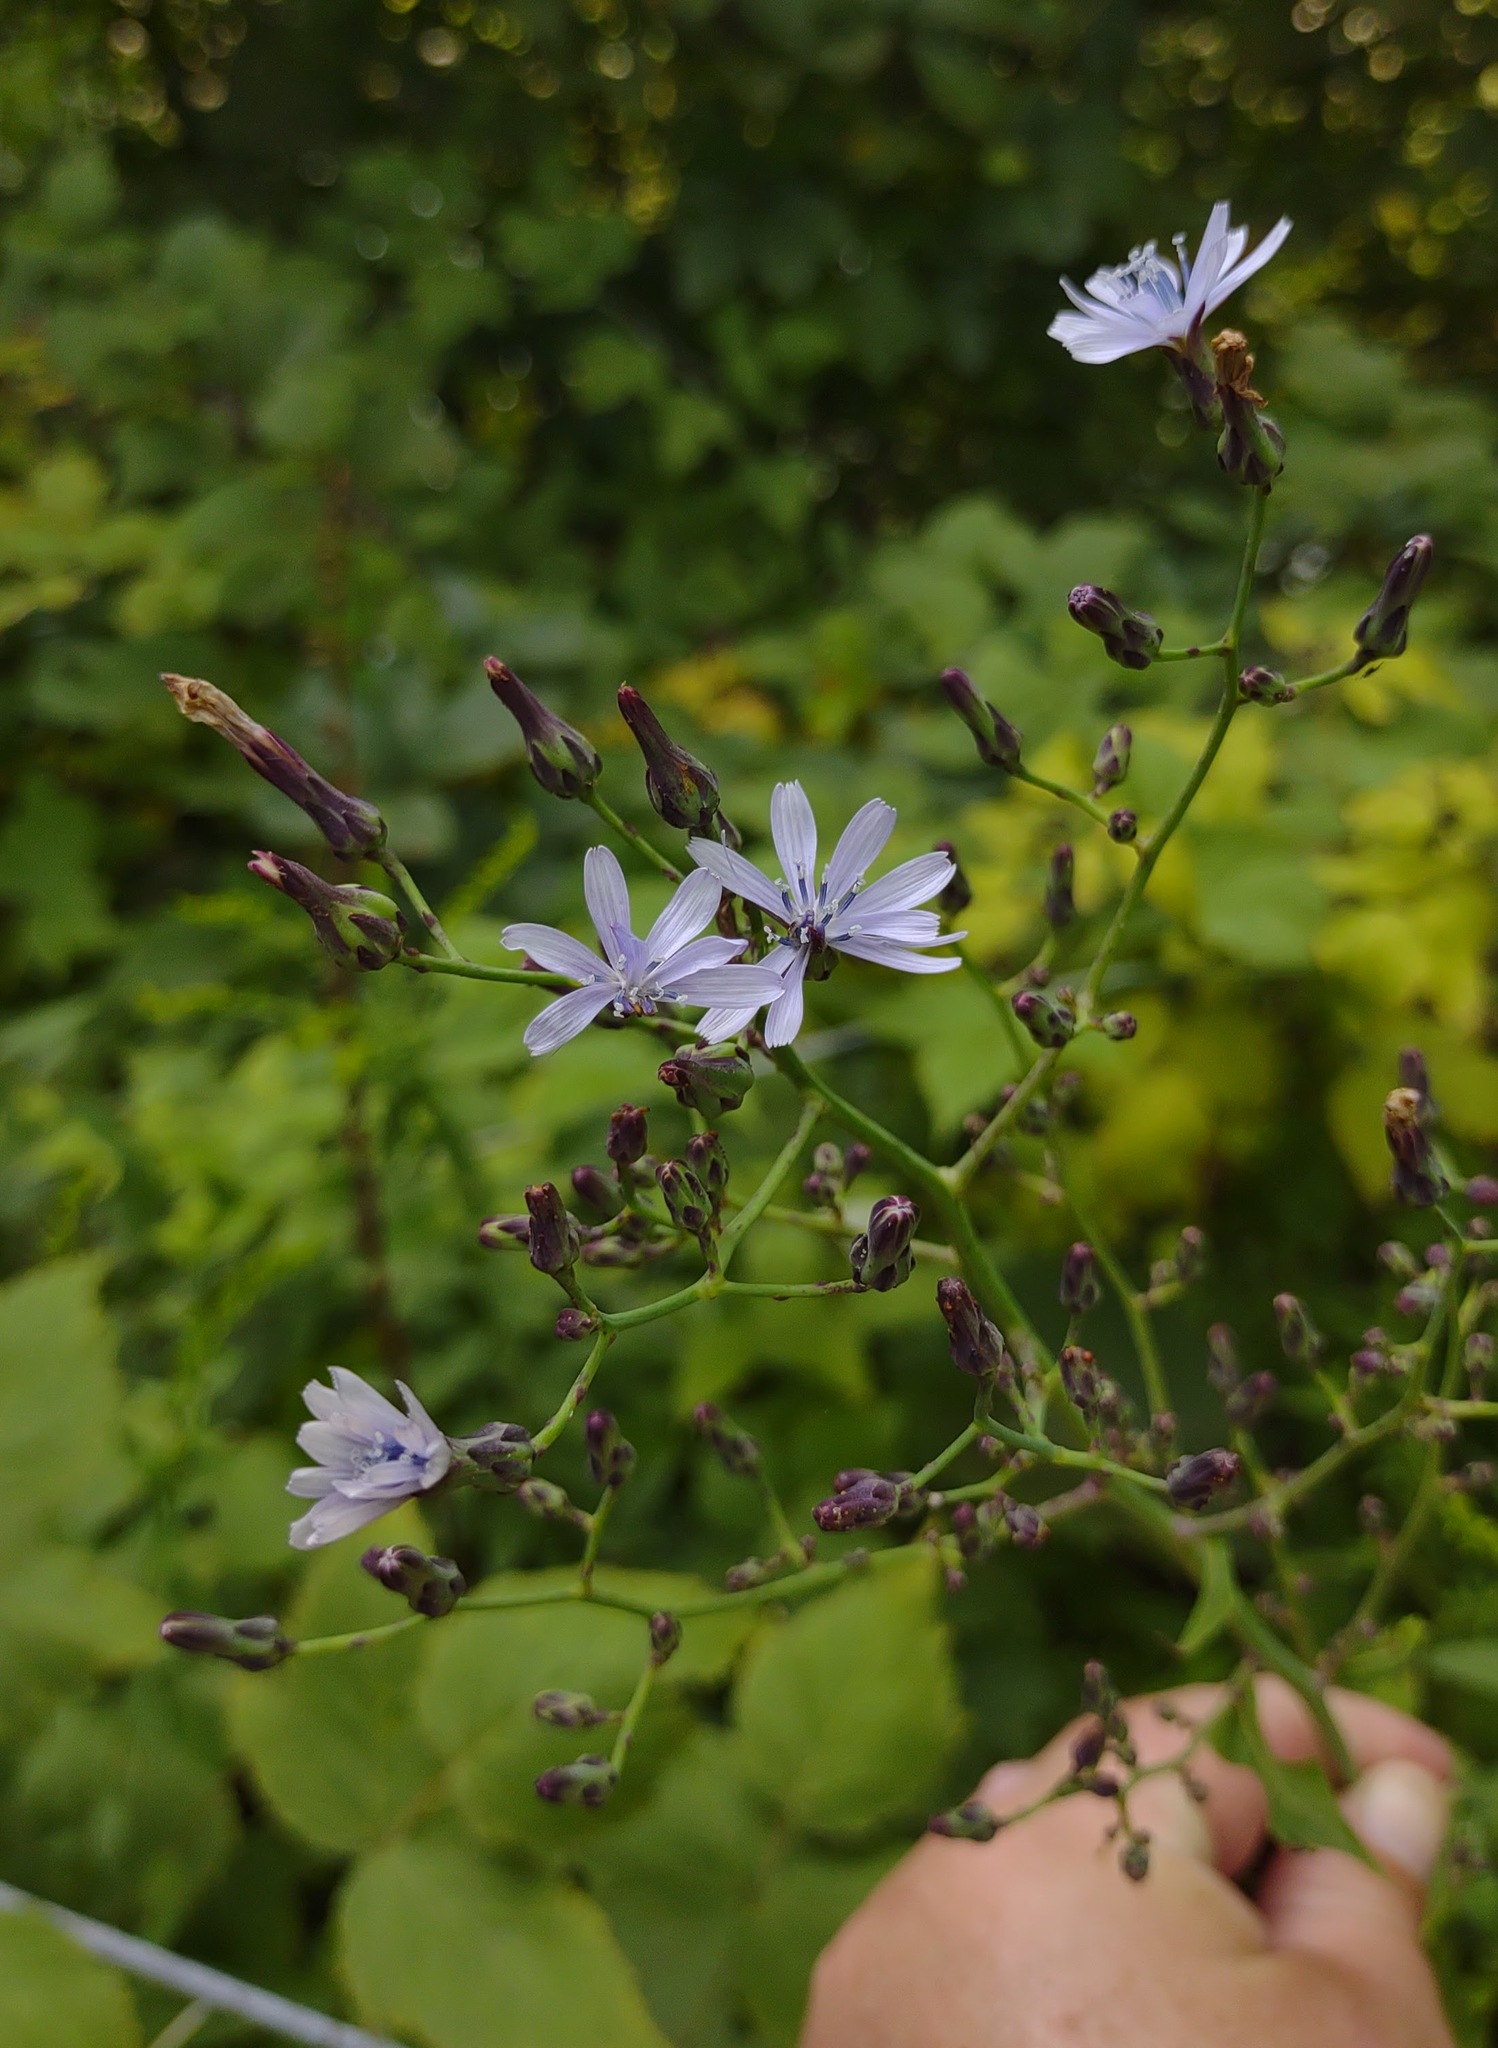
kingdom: Plantae
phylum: Tracheophyta
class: Magnoliopsida
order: Asterales
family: Asteraceae
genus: Lactuca
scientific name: Lactuca floridana
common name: Woodland lettuce
